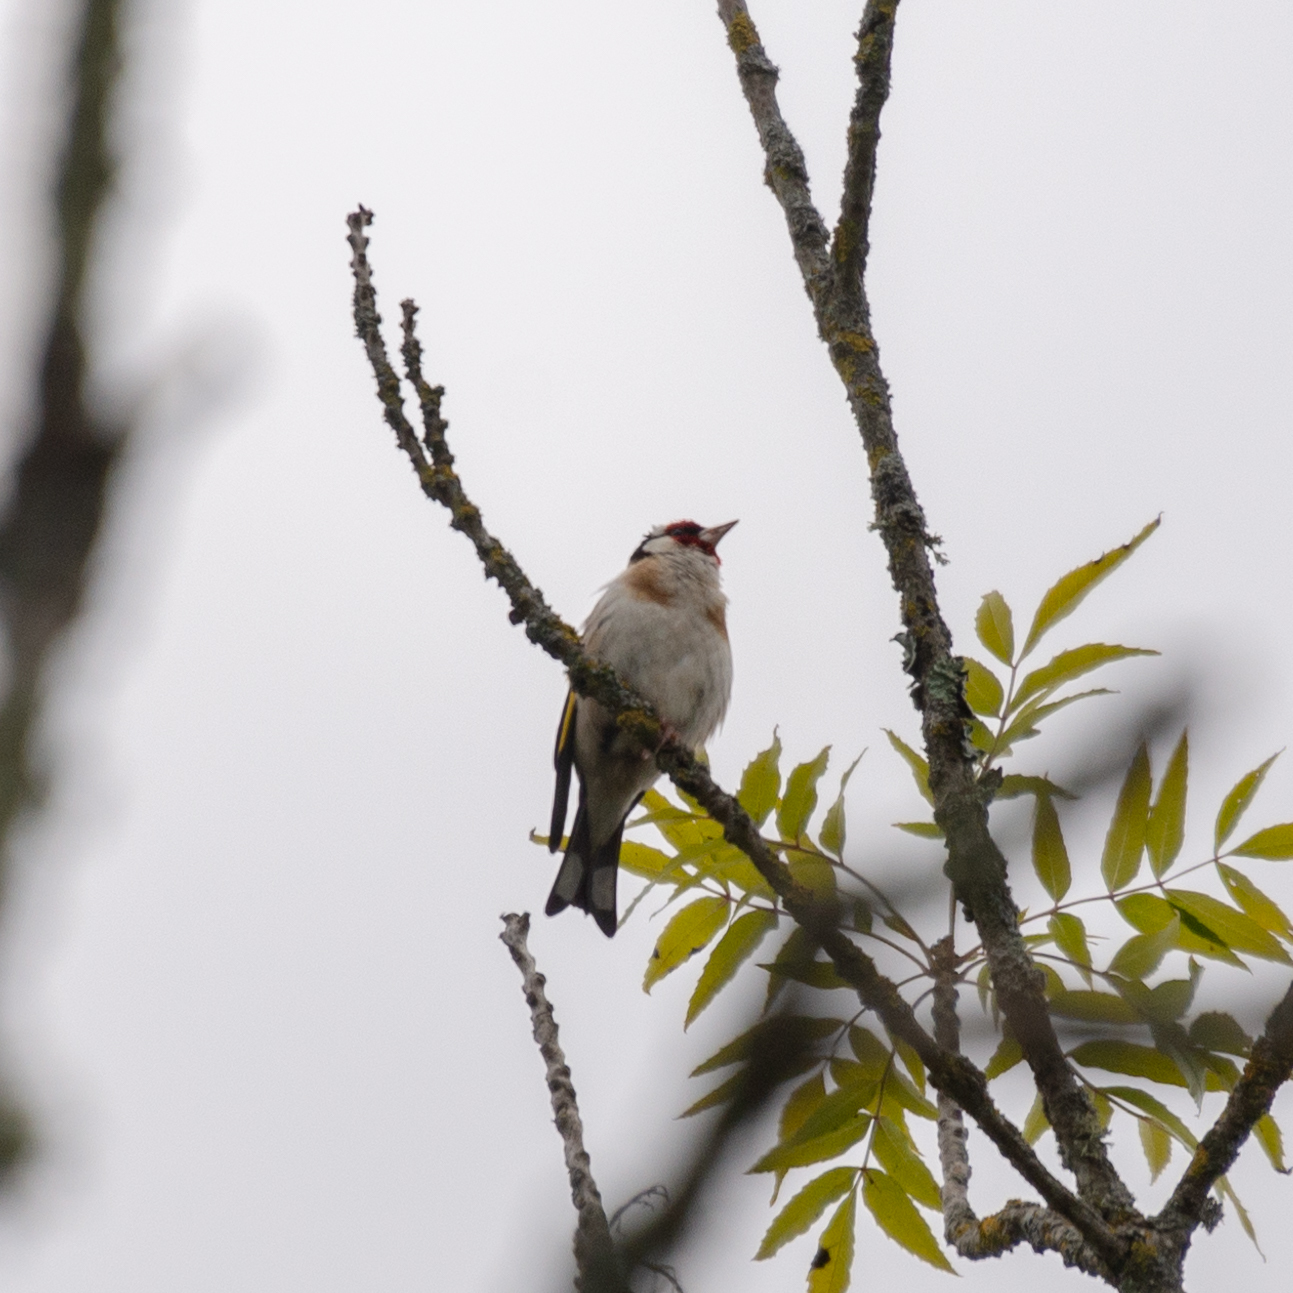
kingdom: Animalia
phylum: Chordata
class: Aves
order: Passeriformes
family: Fringillidae
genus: Carduelis
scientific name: Carduelis carduelis
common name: European goldfinch
